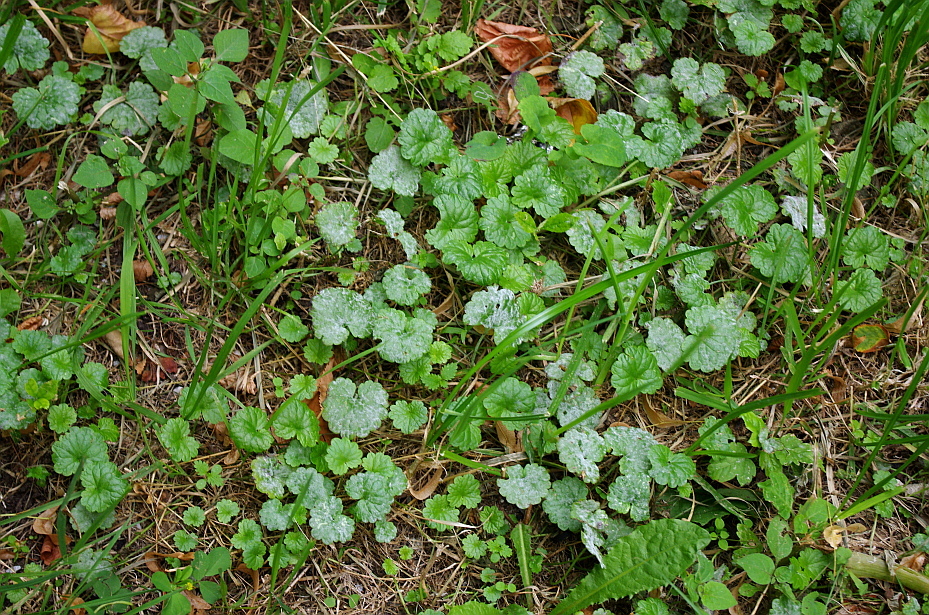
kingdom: Plantae
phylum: Tracheophyta
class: Magnoliopsida
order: Lamiales
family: Lamiaceae
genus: Glechoma
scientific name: Glechoma hederacea
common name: Ground ivy
